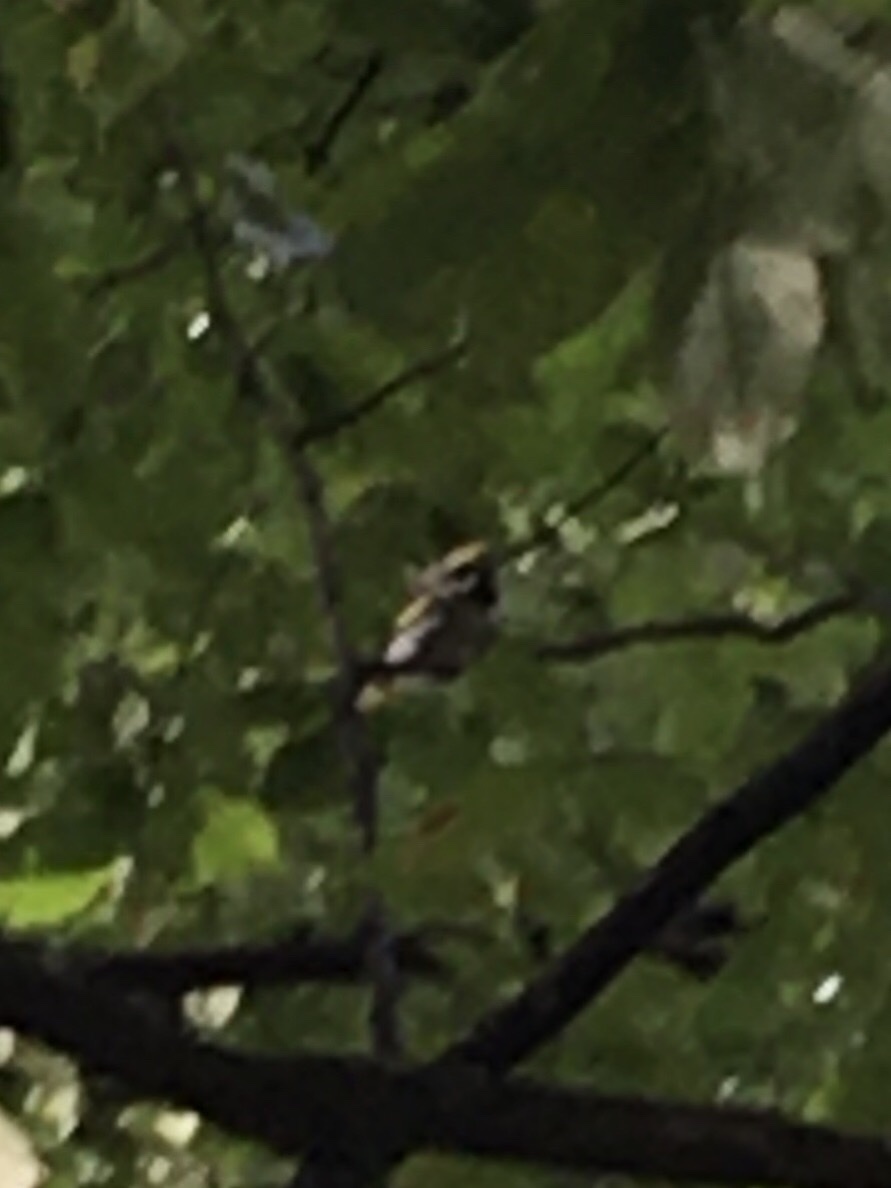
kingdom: Animalia
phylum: Chordata
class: Aves
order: Passeriformes
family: Parulidae
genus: Vermivora
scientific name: Vermivora chrysoptera
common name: Golden-winged warbler
